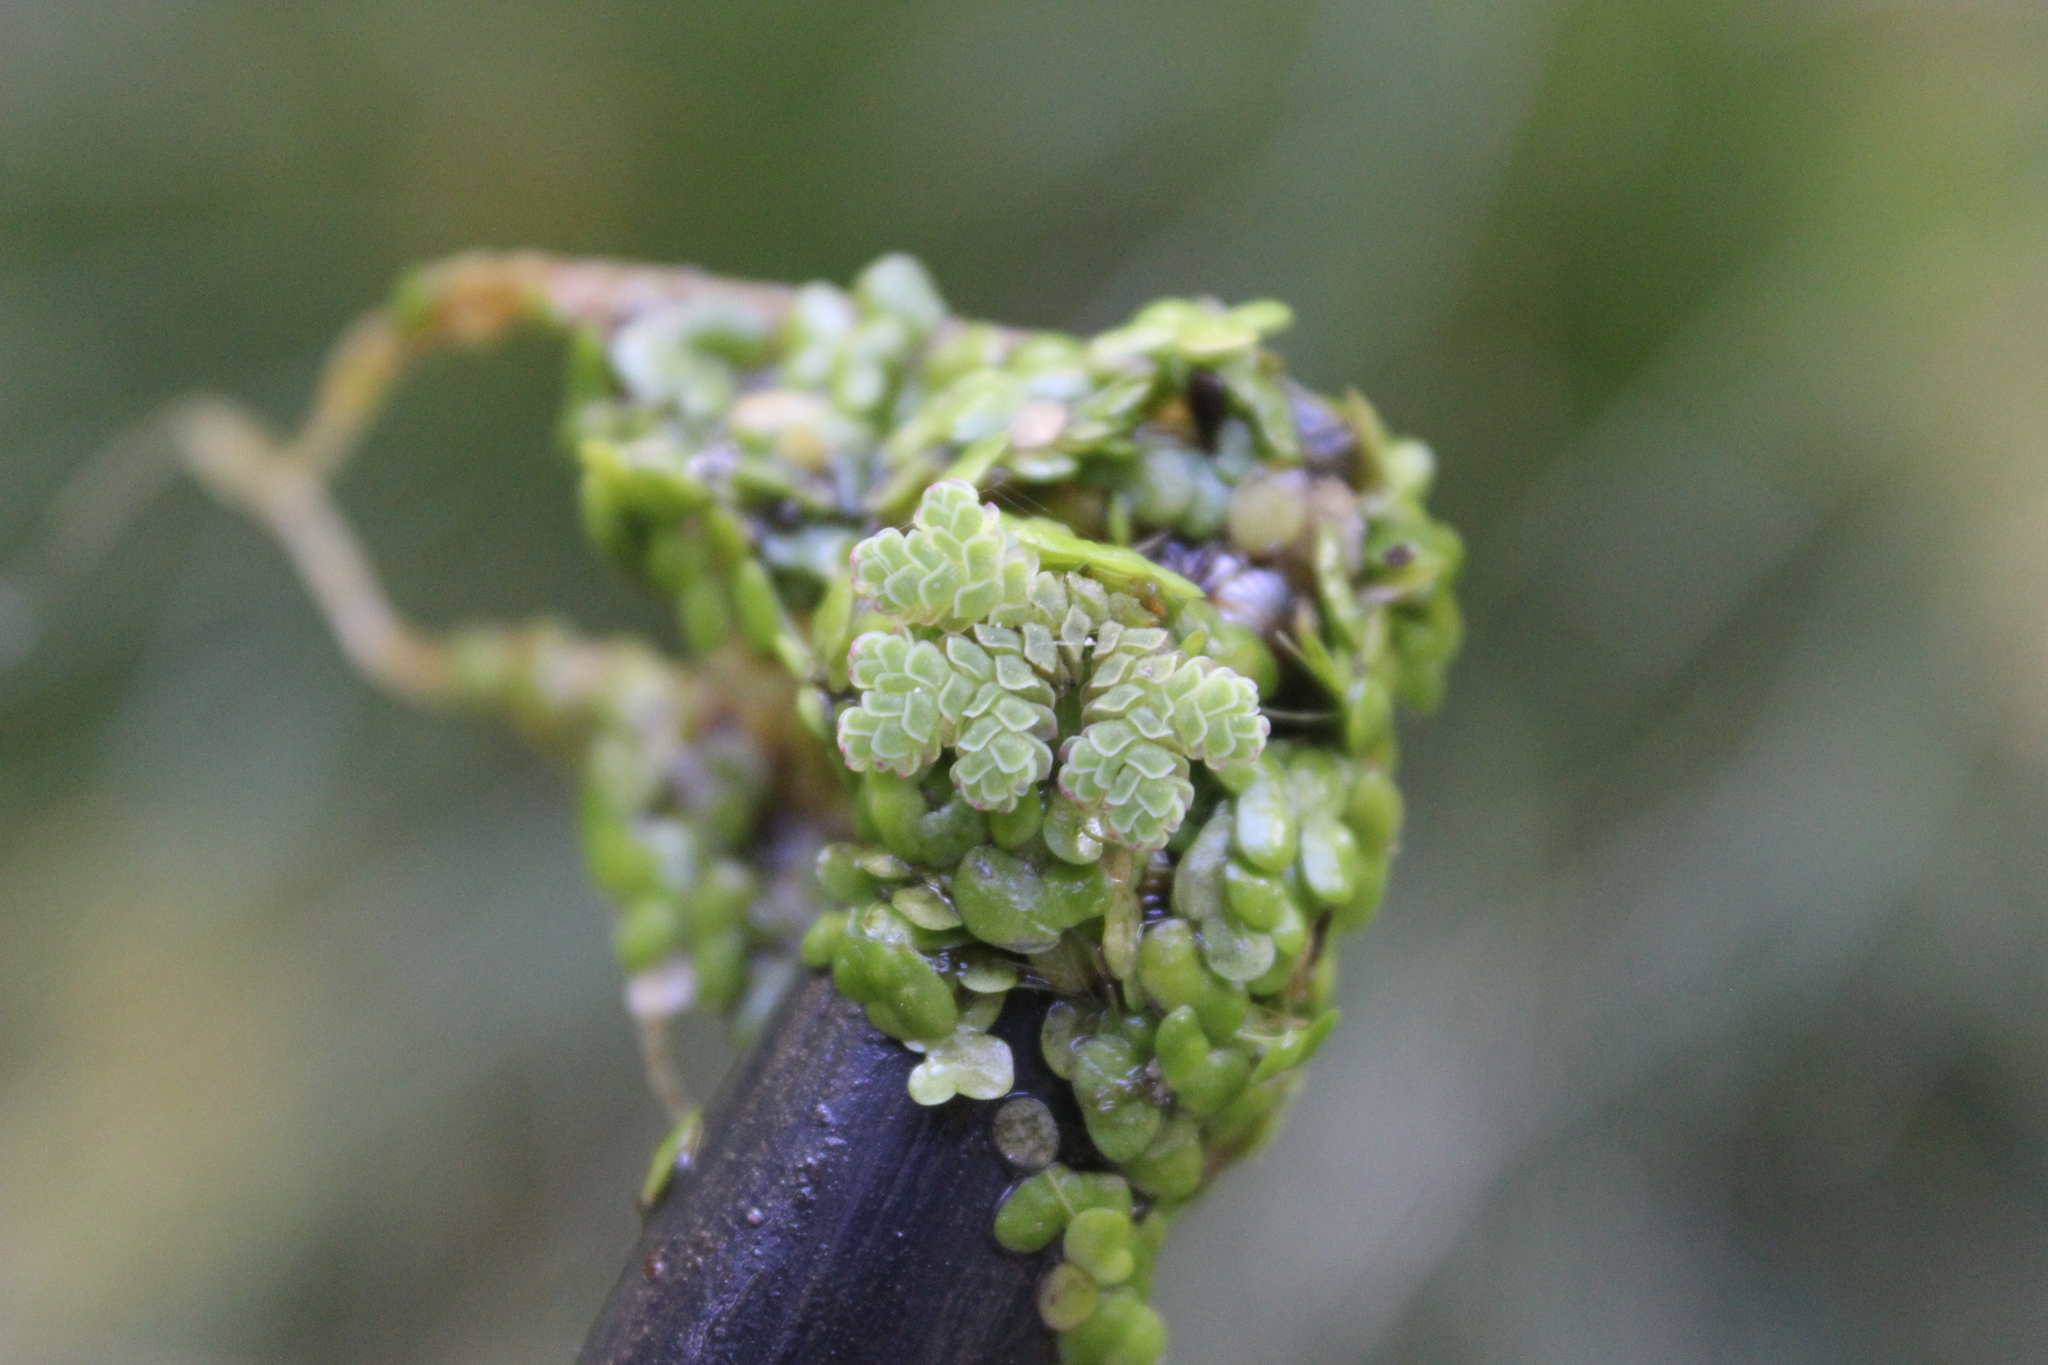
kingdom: Plantae
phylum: Tracheophyta
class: Polypodiopsida
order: Salviniales
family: Salviniaceae
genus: Azolla
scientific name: Azolla rubra
